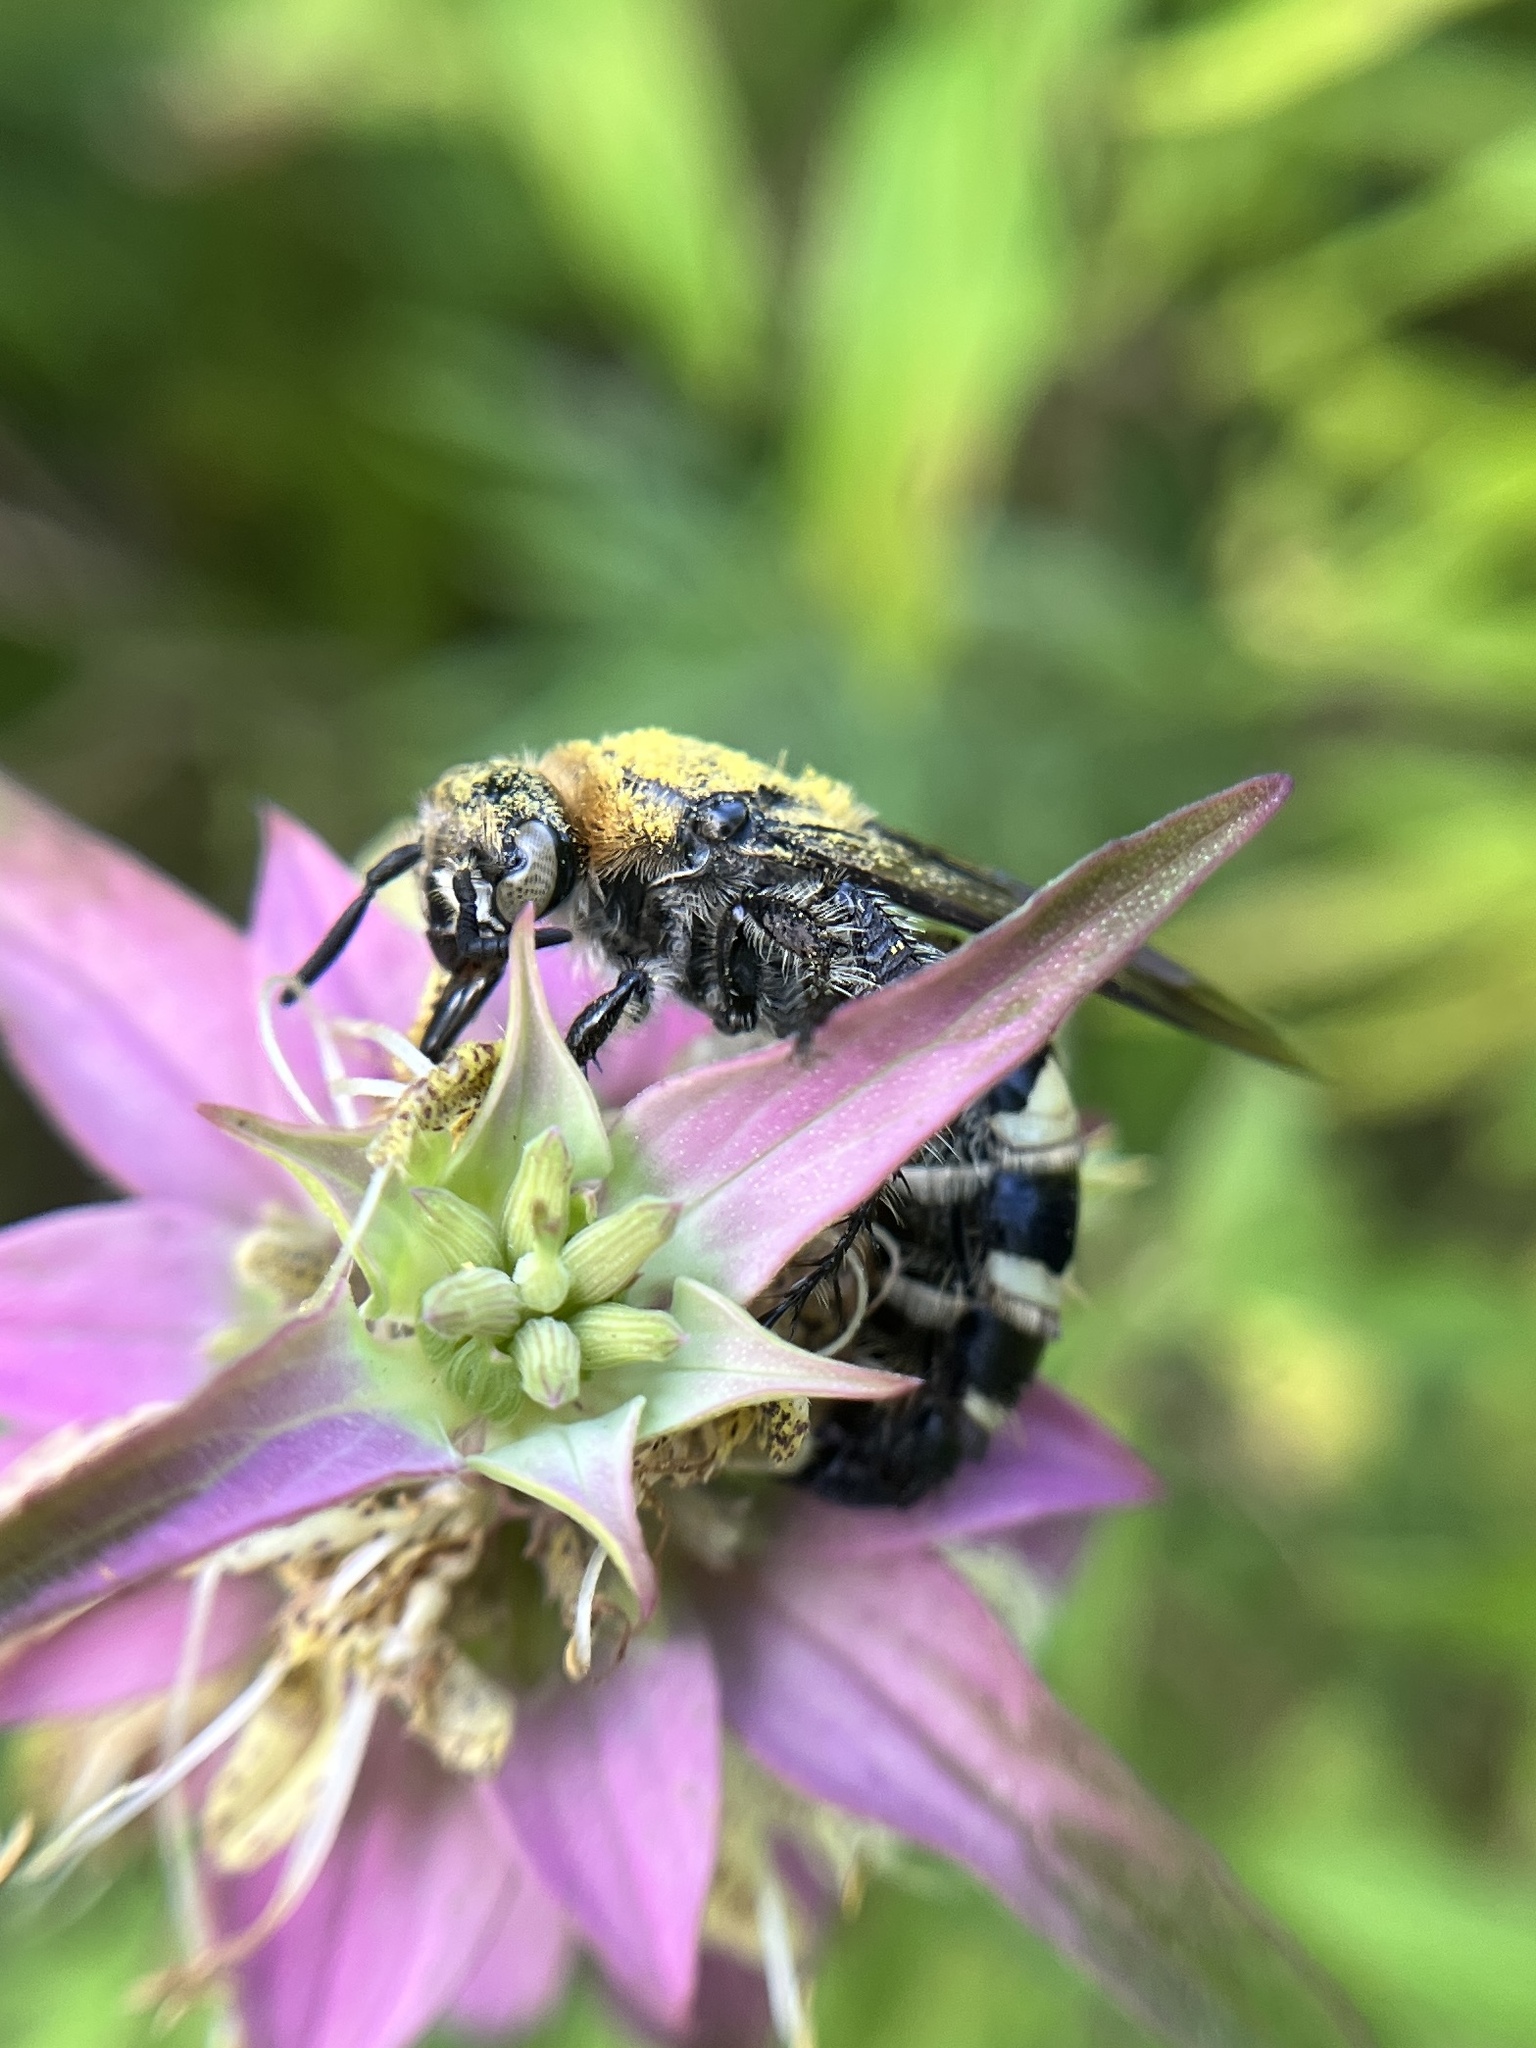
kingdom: Animalia
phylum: Arthropoda
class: Insecta
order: Hymenoptera
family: Scoliidae
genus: Dielis
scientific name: Dielis
